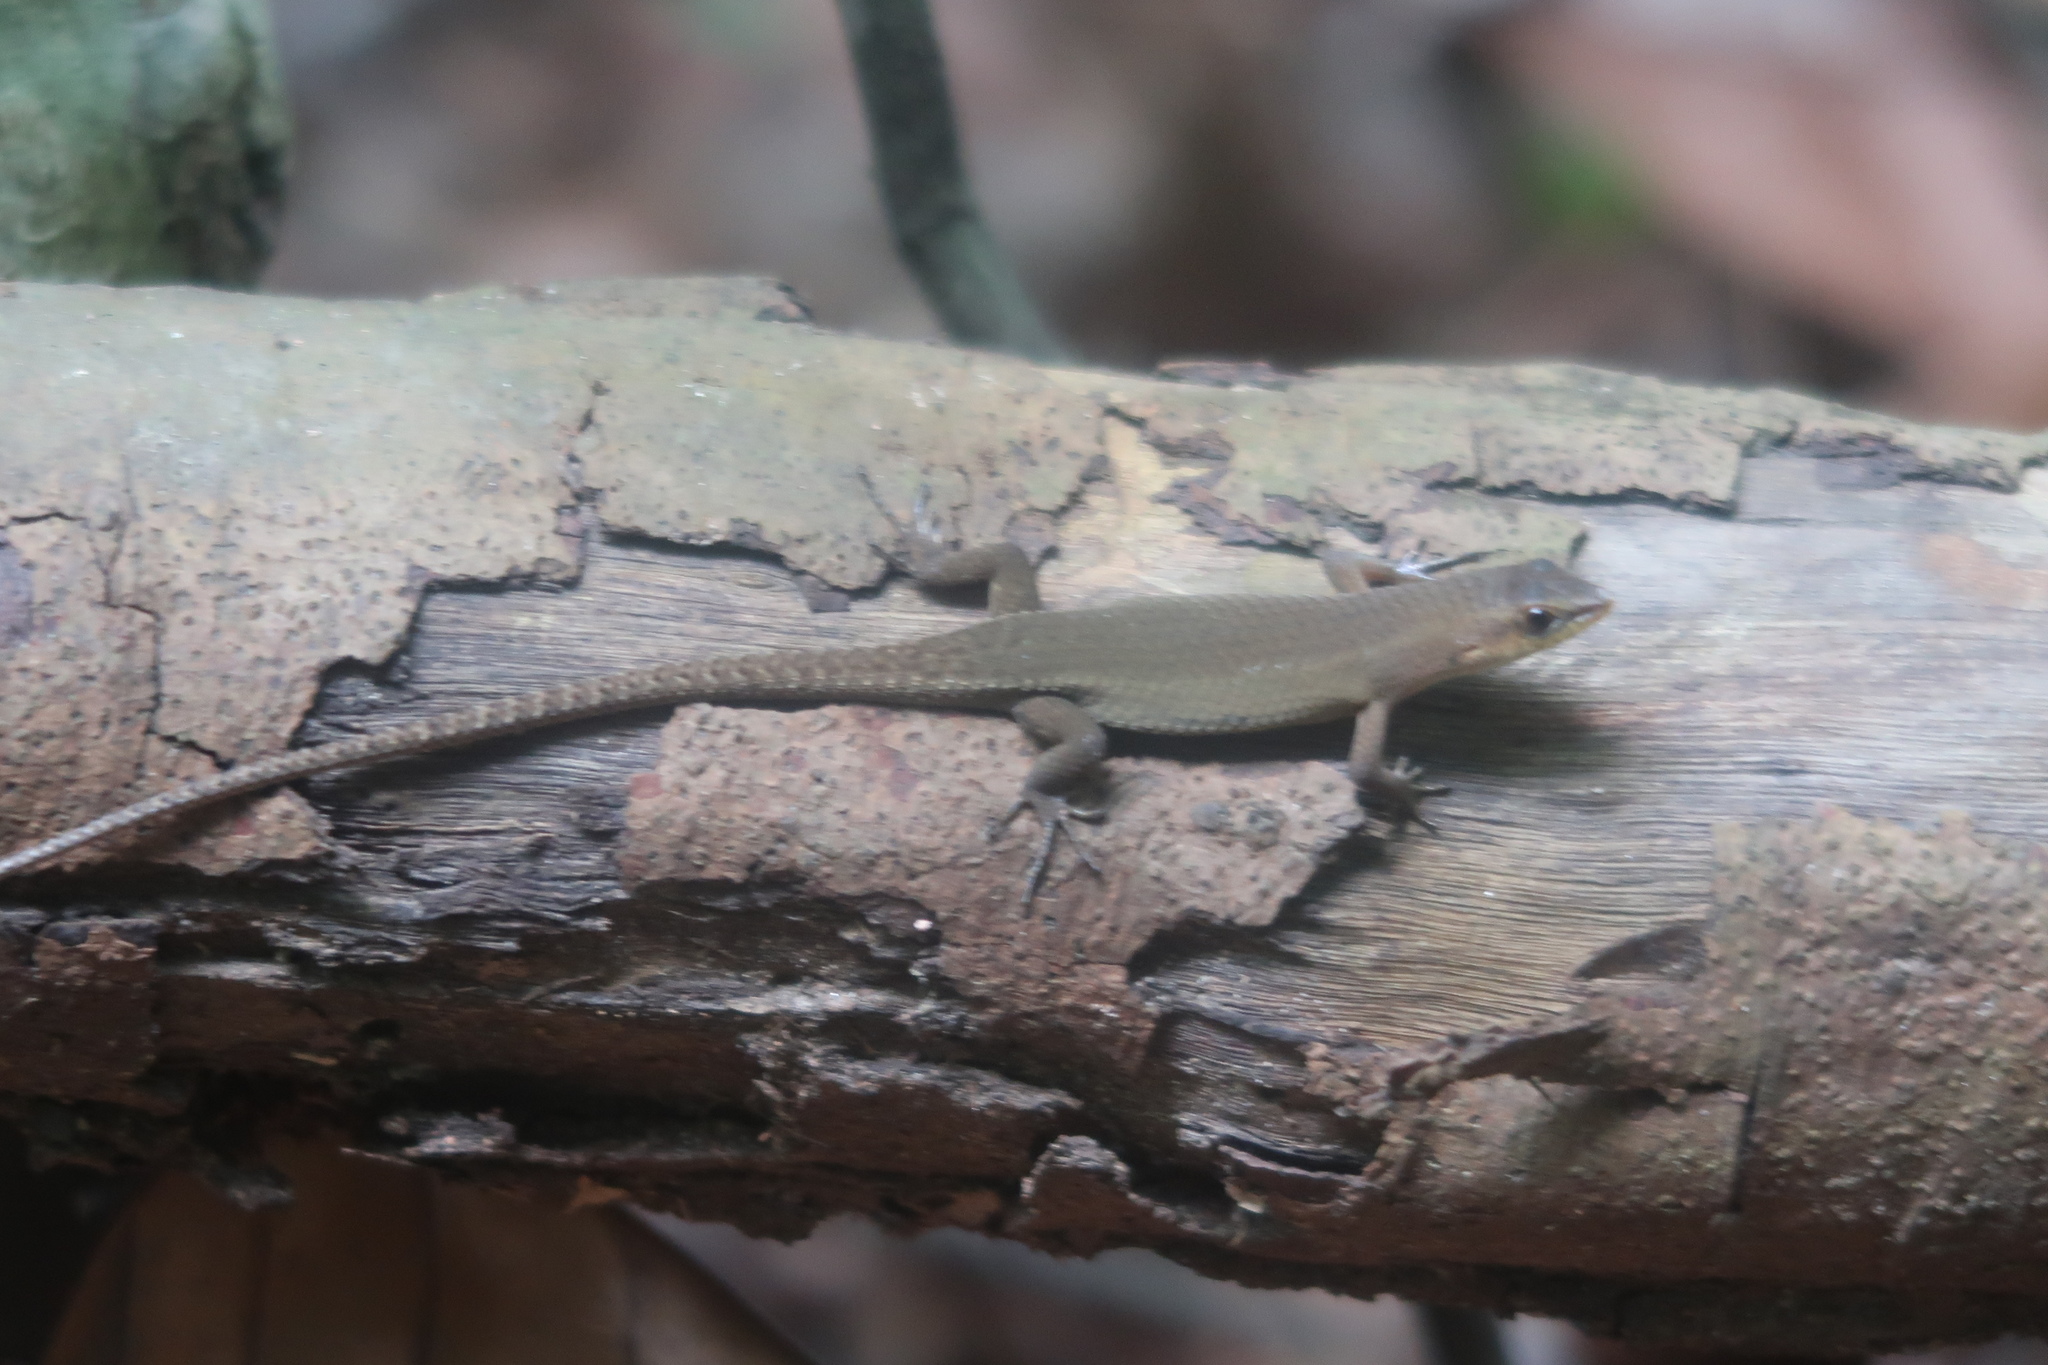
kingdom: Animalia
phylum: Chordata
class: Squamata
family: Scincidae
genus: Eutropis
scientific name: Eutropis rugifera
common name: Rough-scaled sun skink
